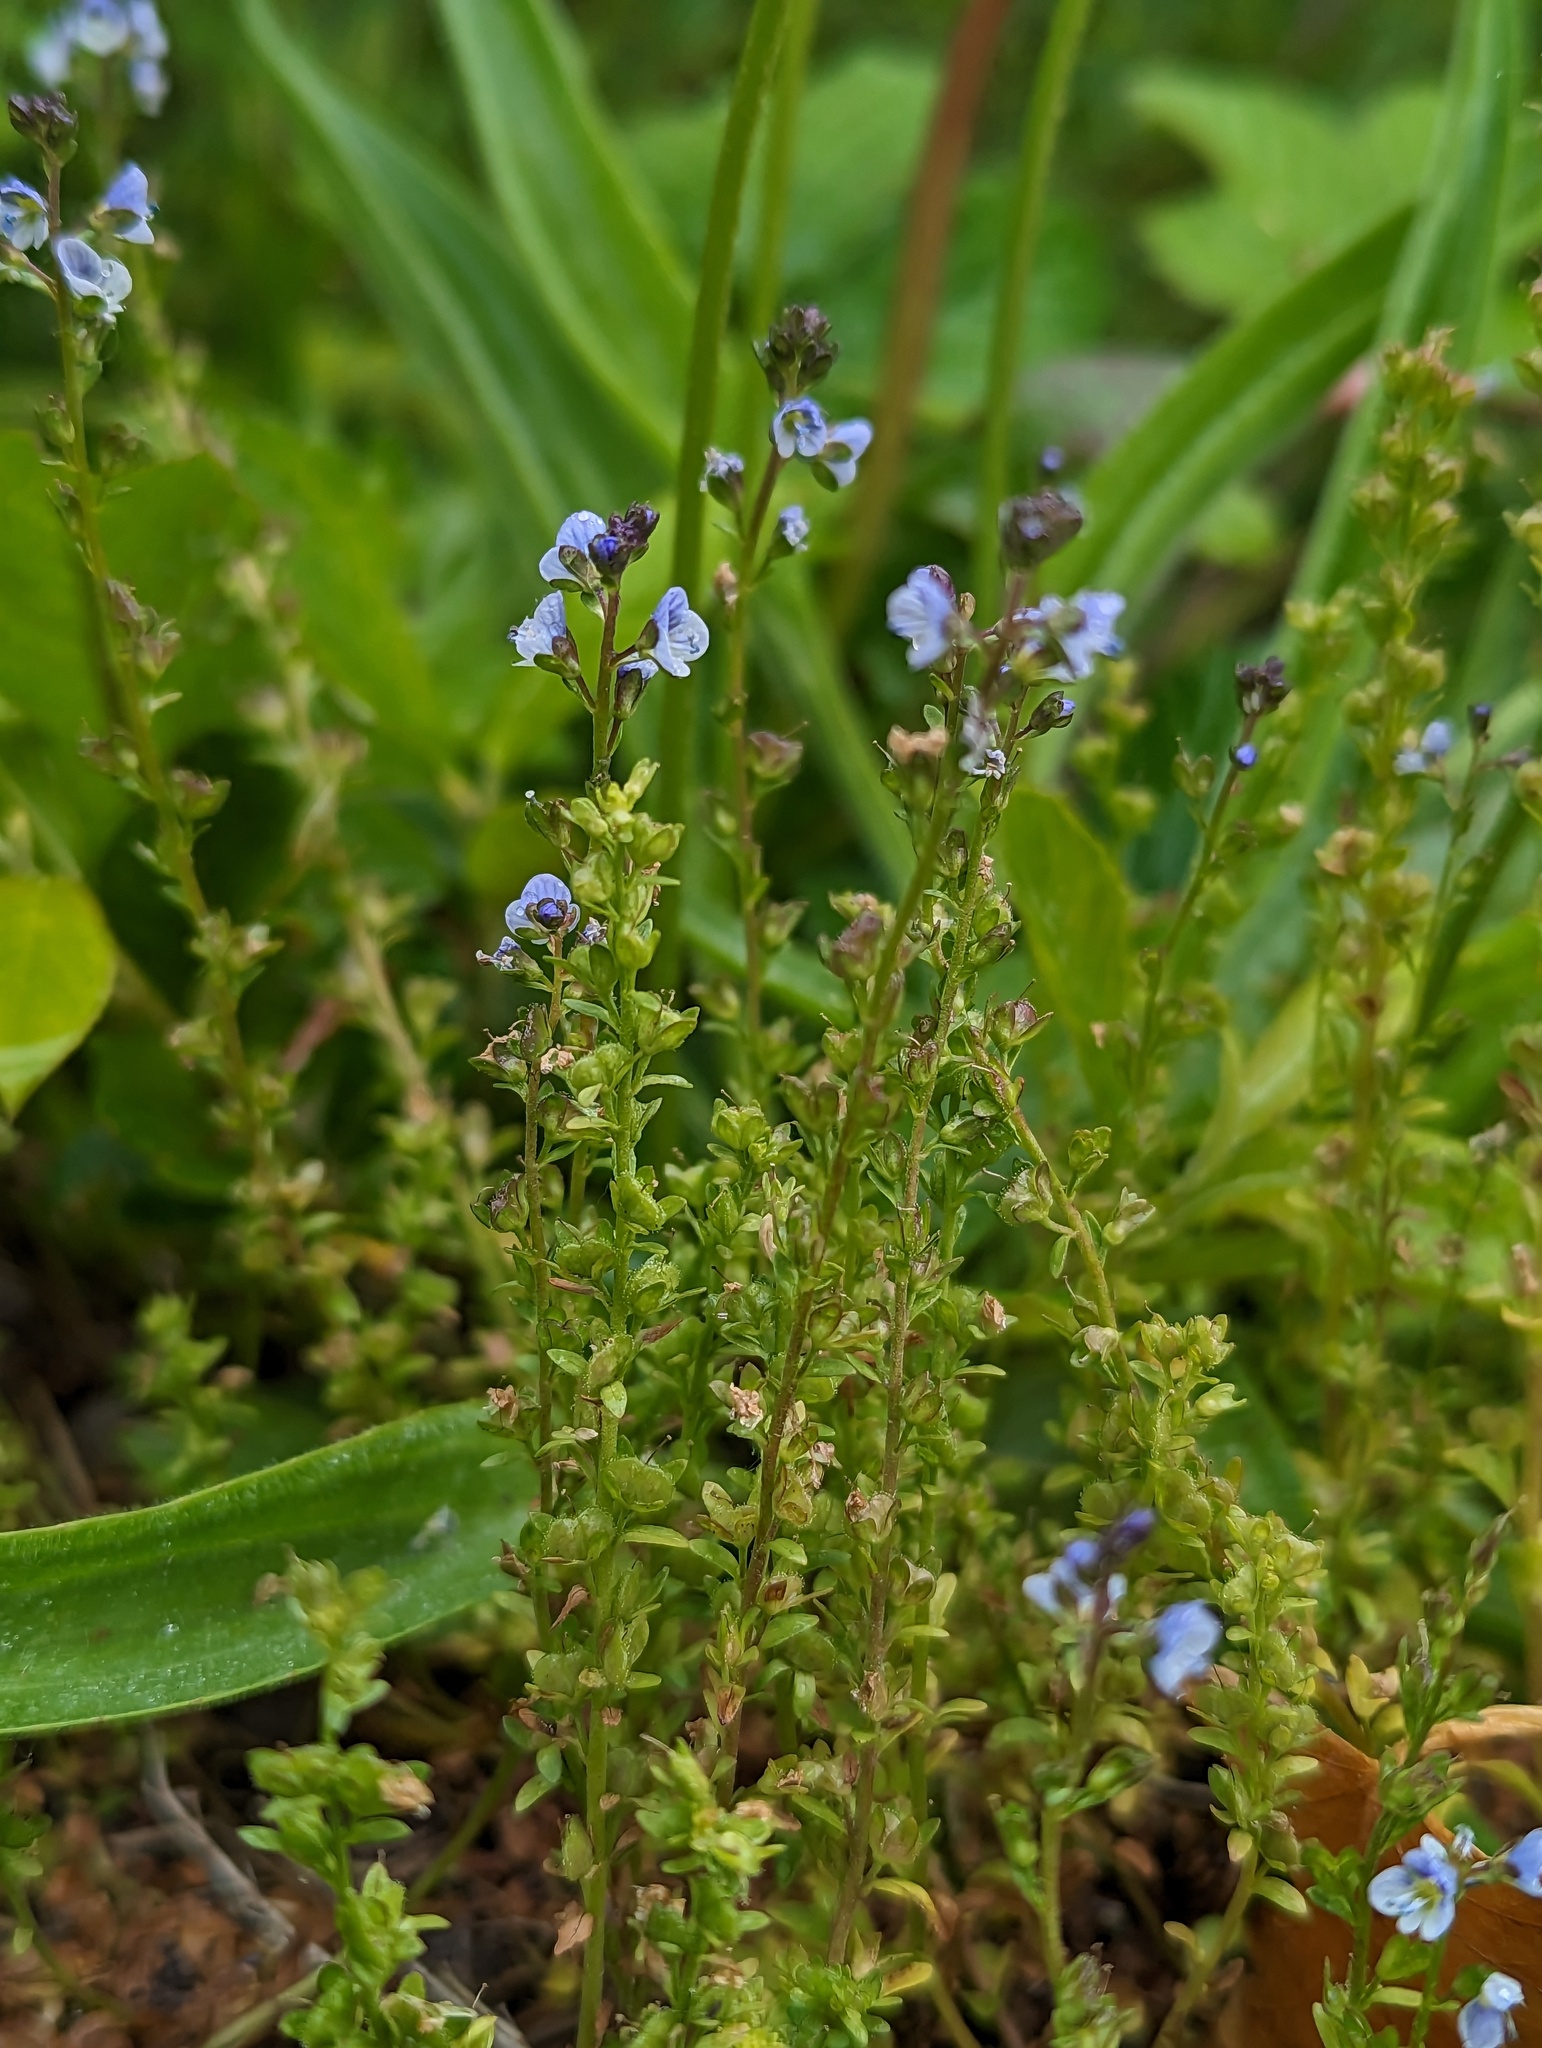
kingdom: Plantae
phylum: Tracheophyta
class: Magnoliopsida
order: Lamiales
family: Plantaginaceae
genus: Veronica
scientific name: Veronica serpyllifolia
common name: Thyme-leaved speedwell
